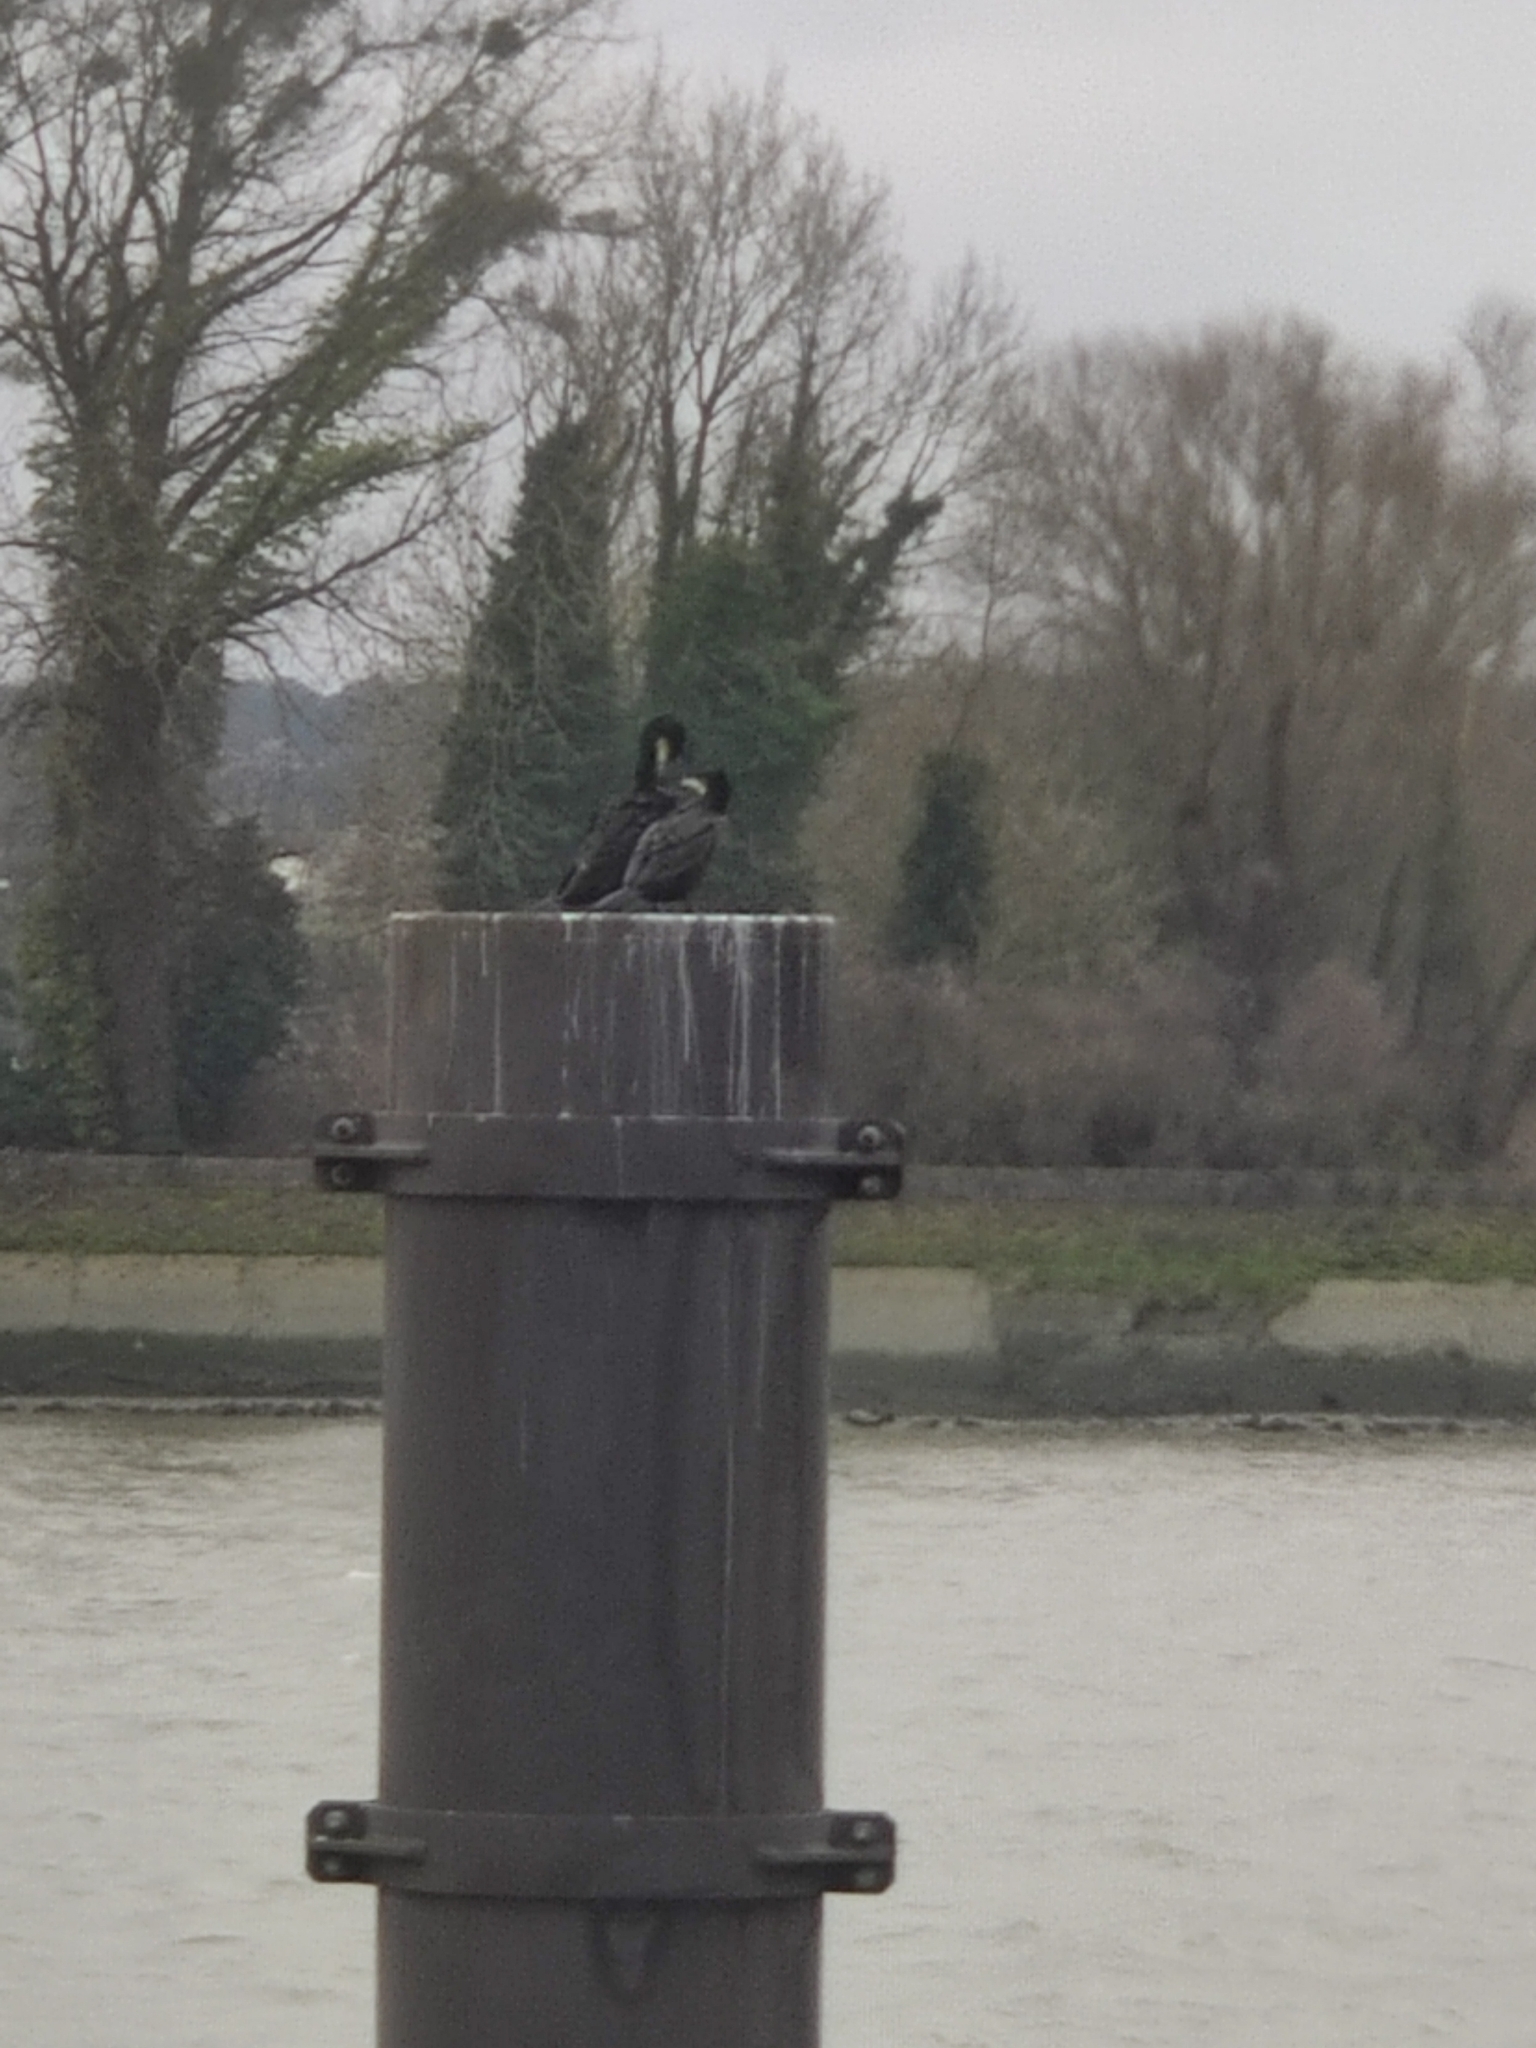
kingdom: Animalia
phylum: Chordata
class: Aves
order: Suliformes
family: Phalacrocoracidae
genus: Phalacrocorax
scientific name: Phalacrocorax carbo
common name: Great cormorant
